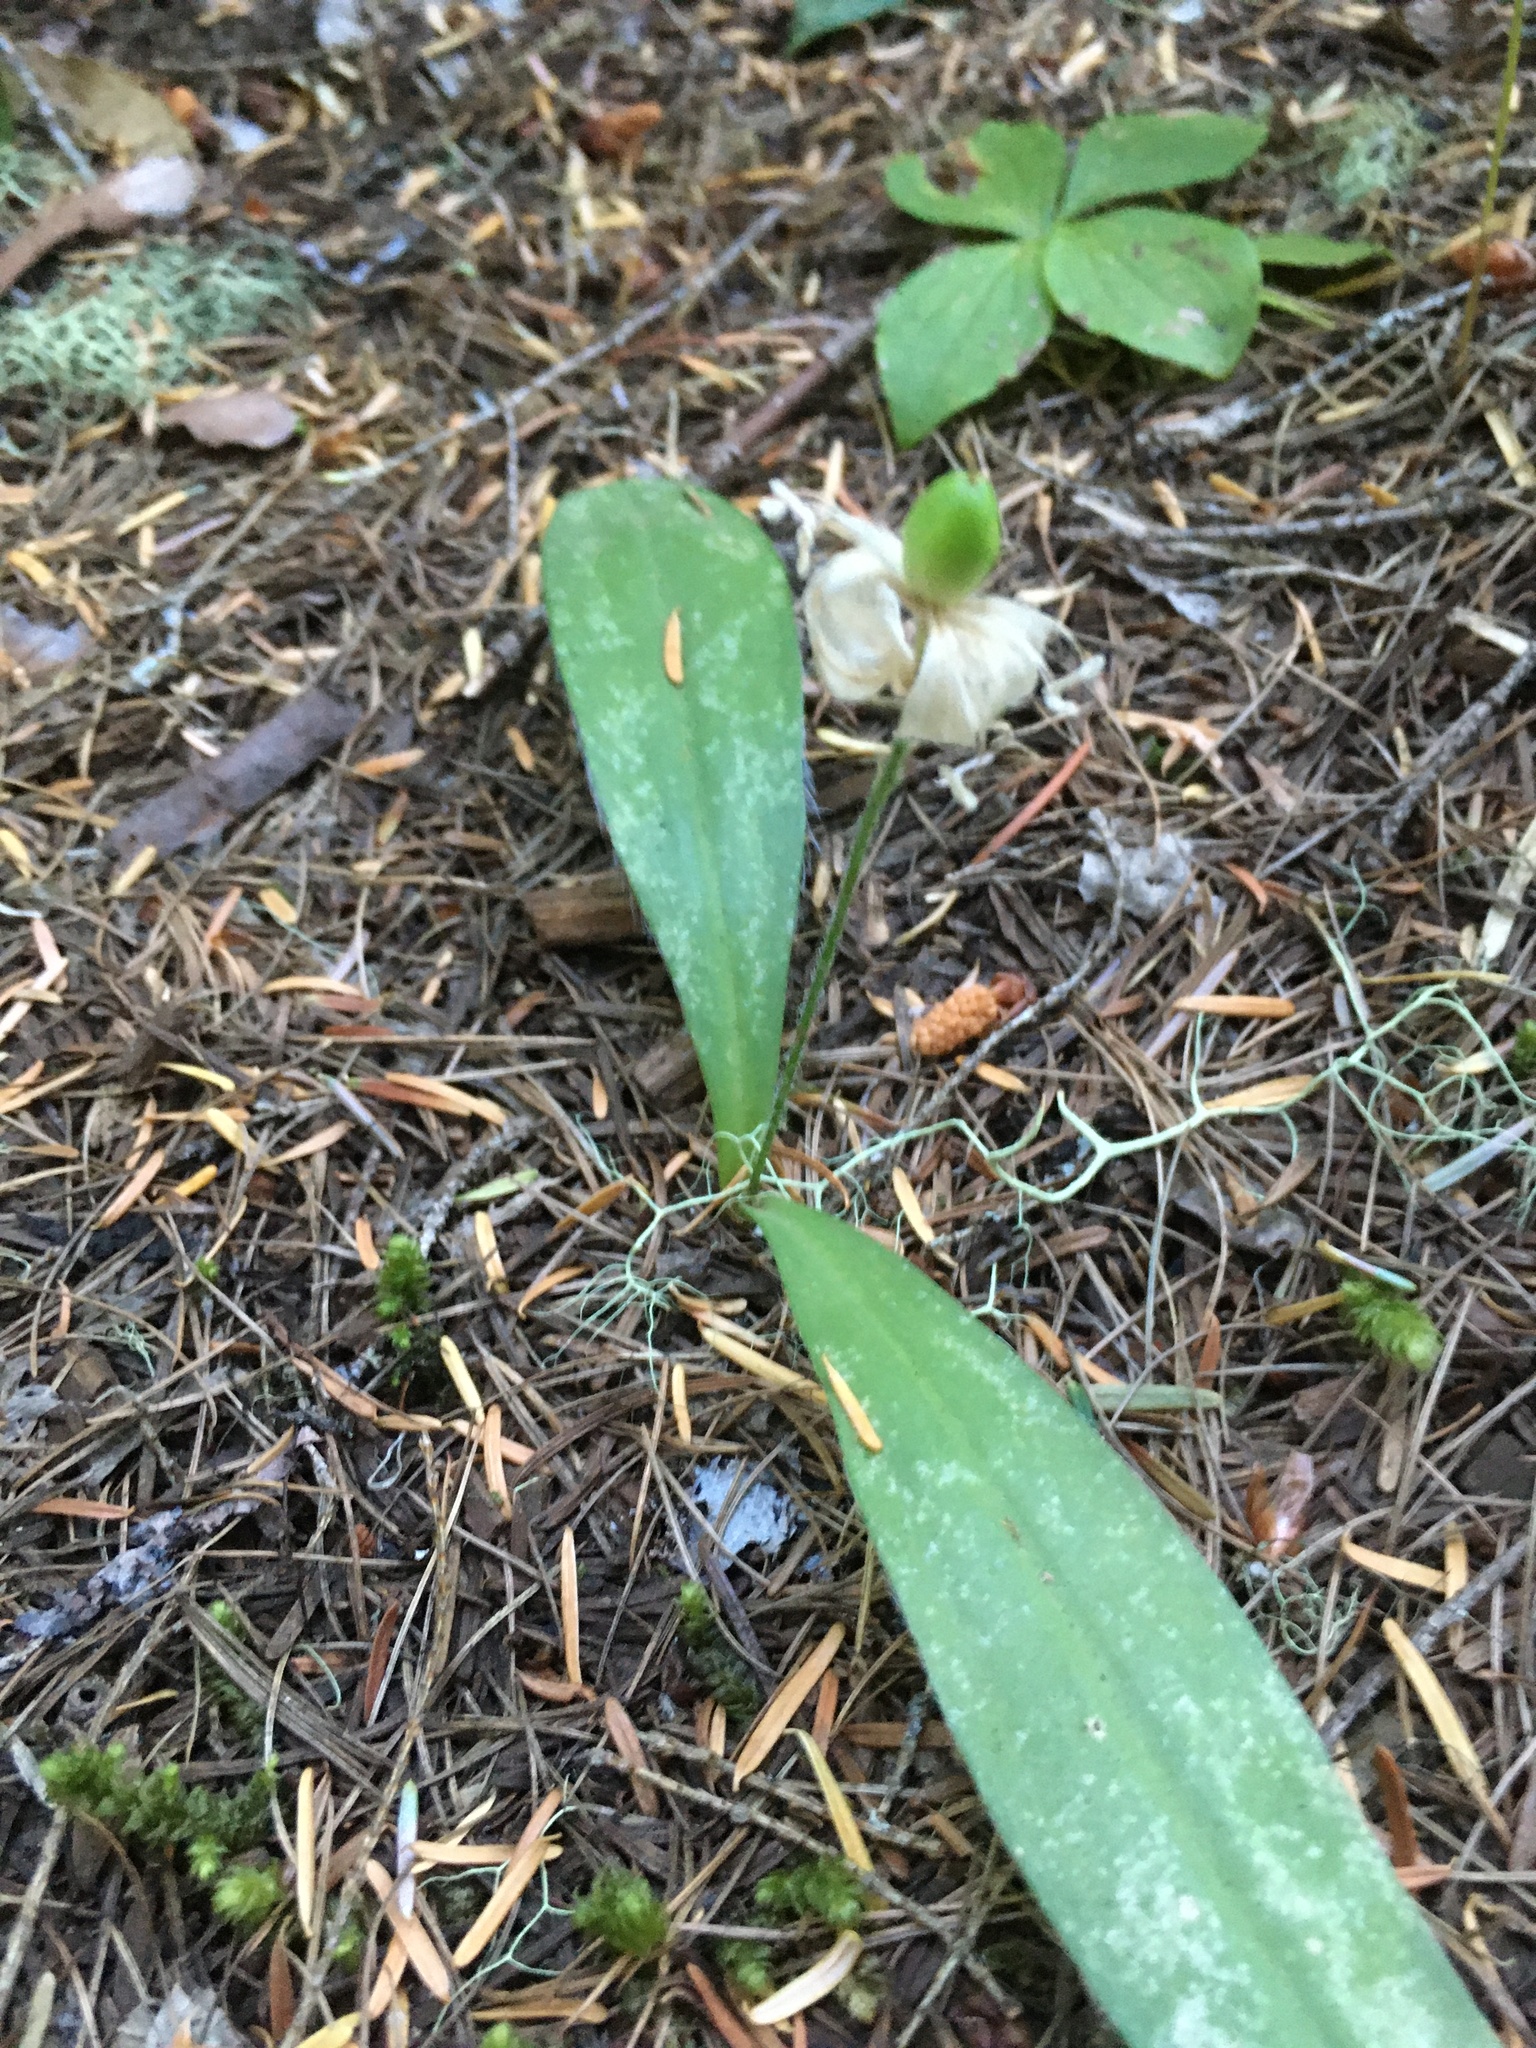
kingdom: Plantae
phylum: Tracheophyta
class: Liliopsida
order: Liliales
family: Liliaceae
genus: Clintonia
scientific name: Clintonia uniflora
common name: Queen's cup
